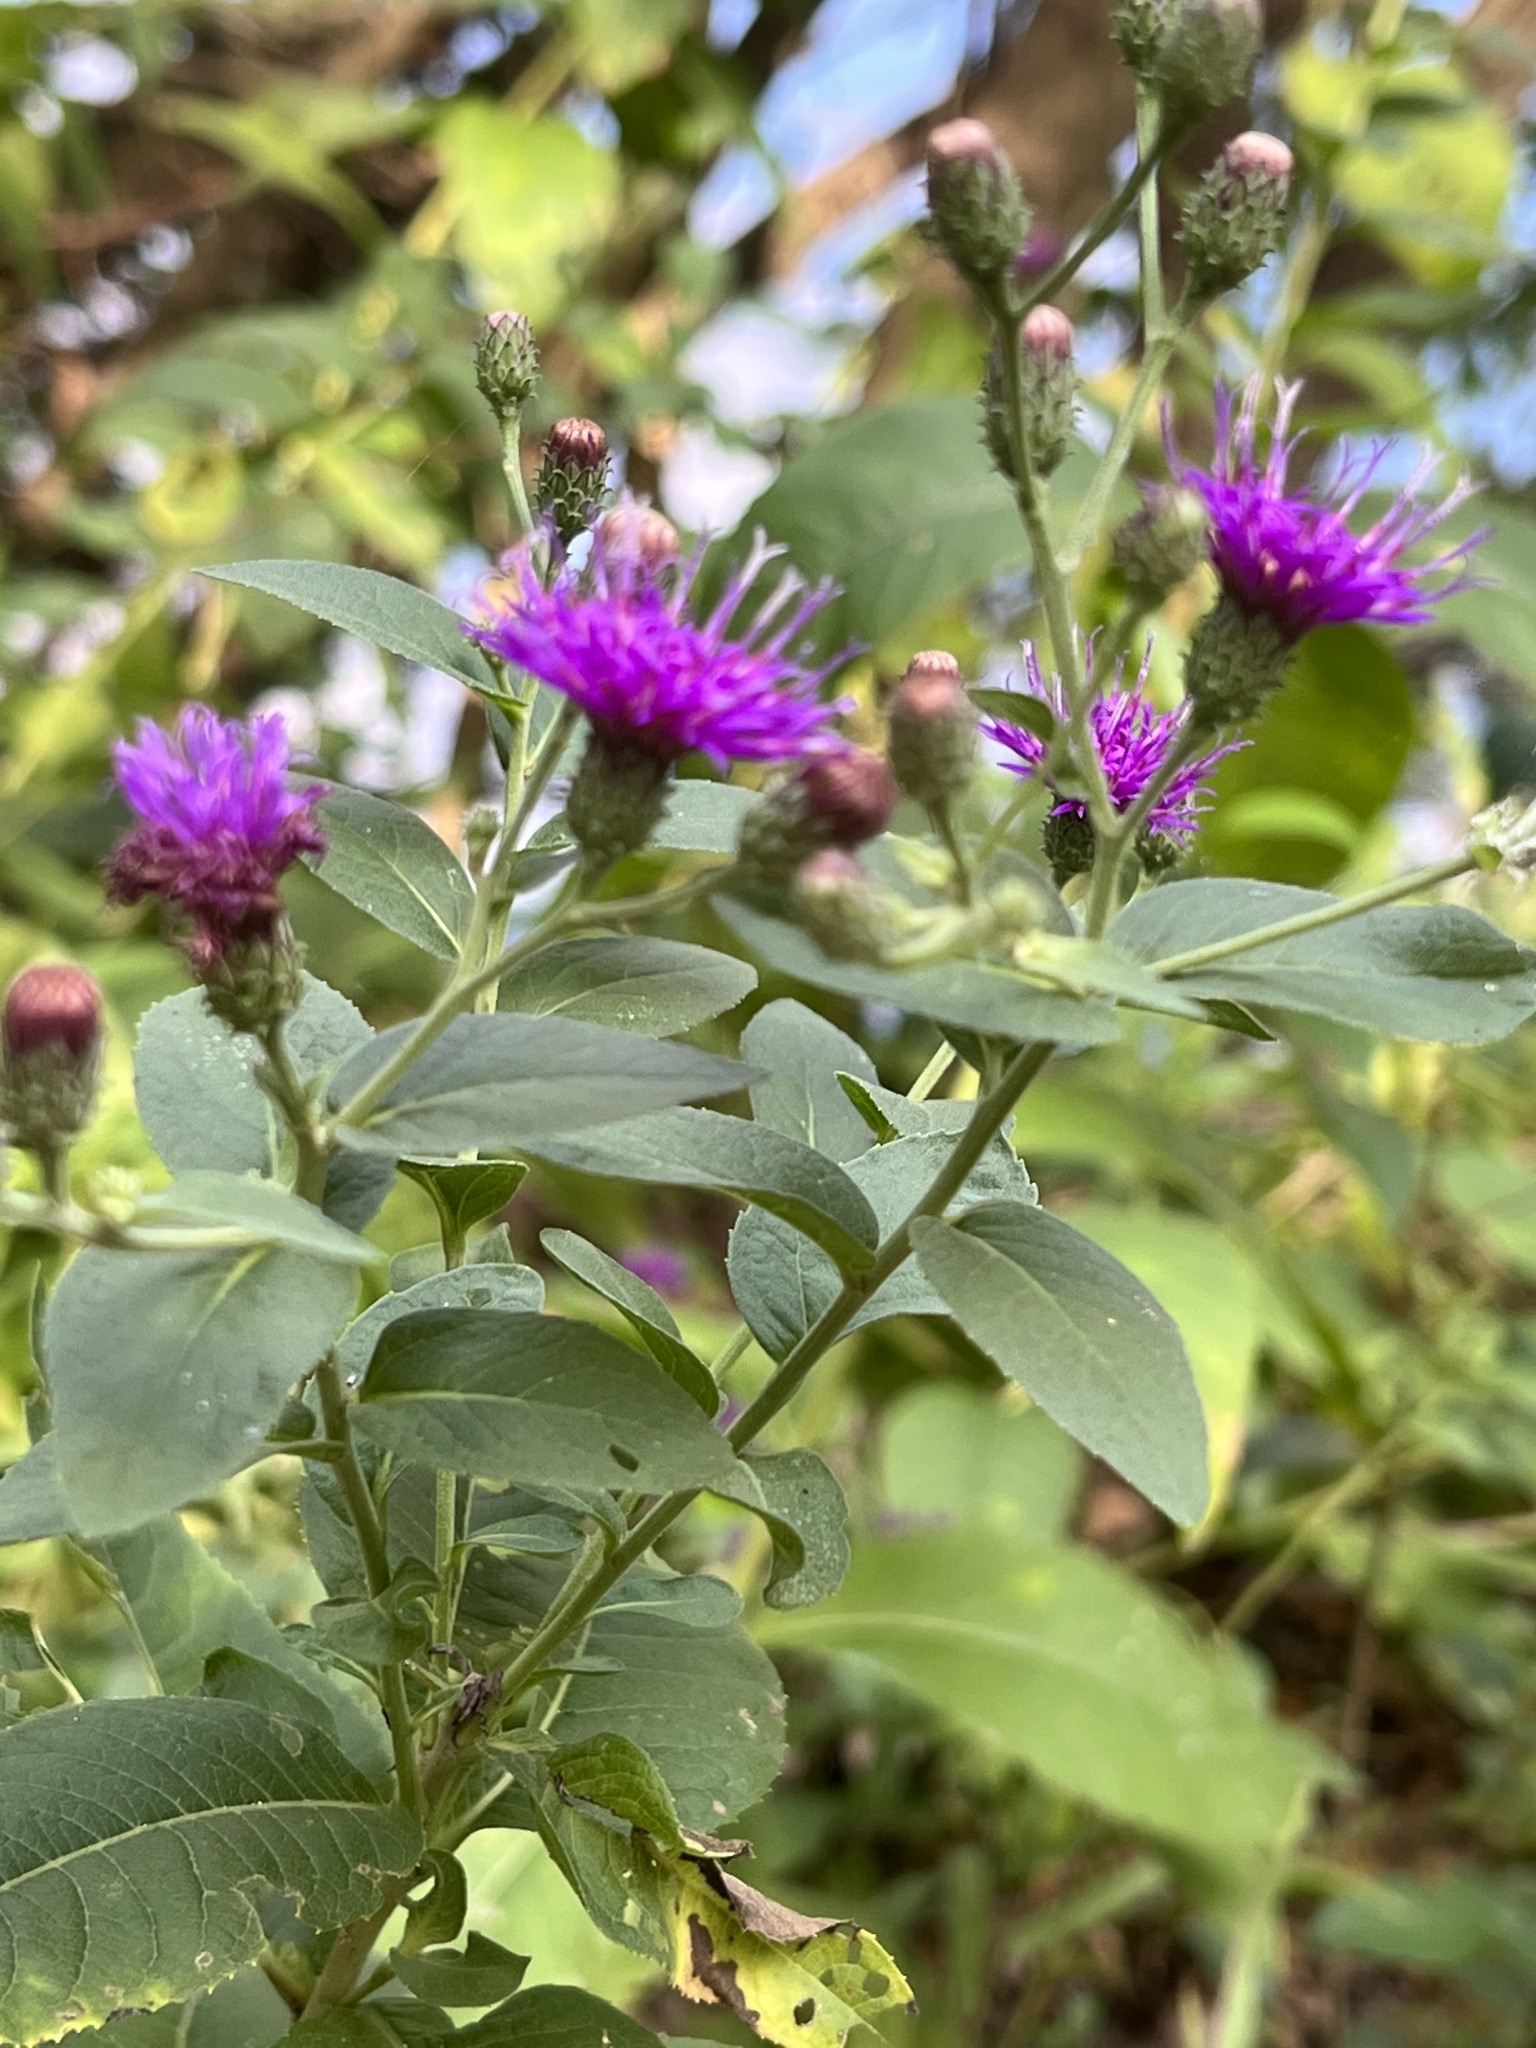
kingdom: Plantae
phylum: Tracheophyta
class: Magnoliopsida
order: Asterales
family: Asteraceae
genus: Vernonia
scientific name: Vernonia baldwinii
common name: Western ironweed
